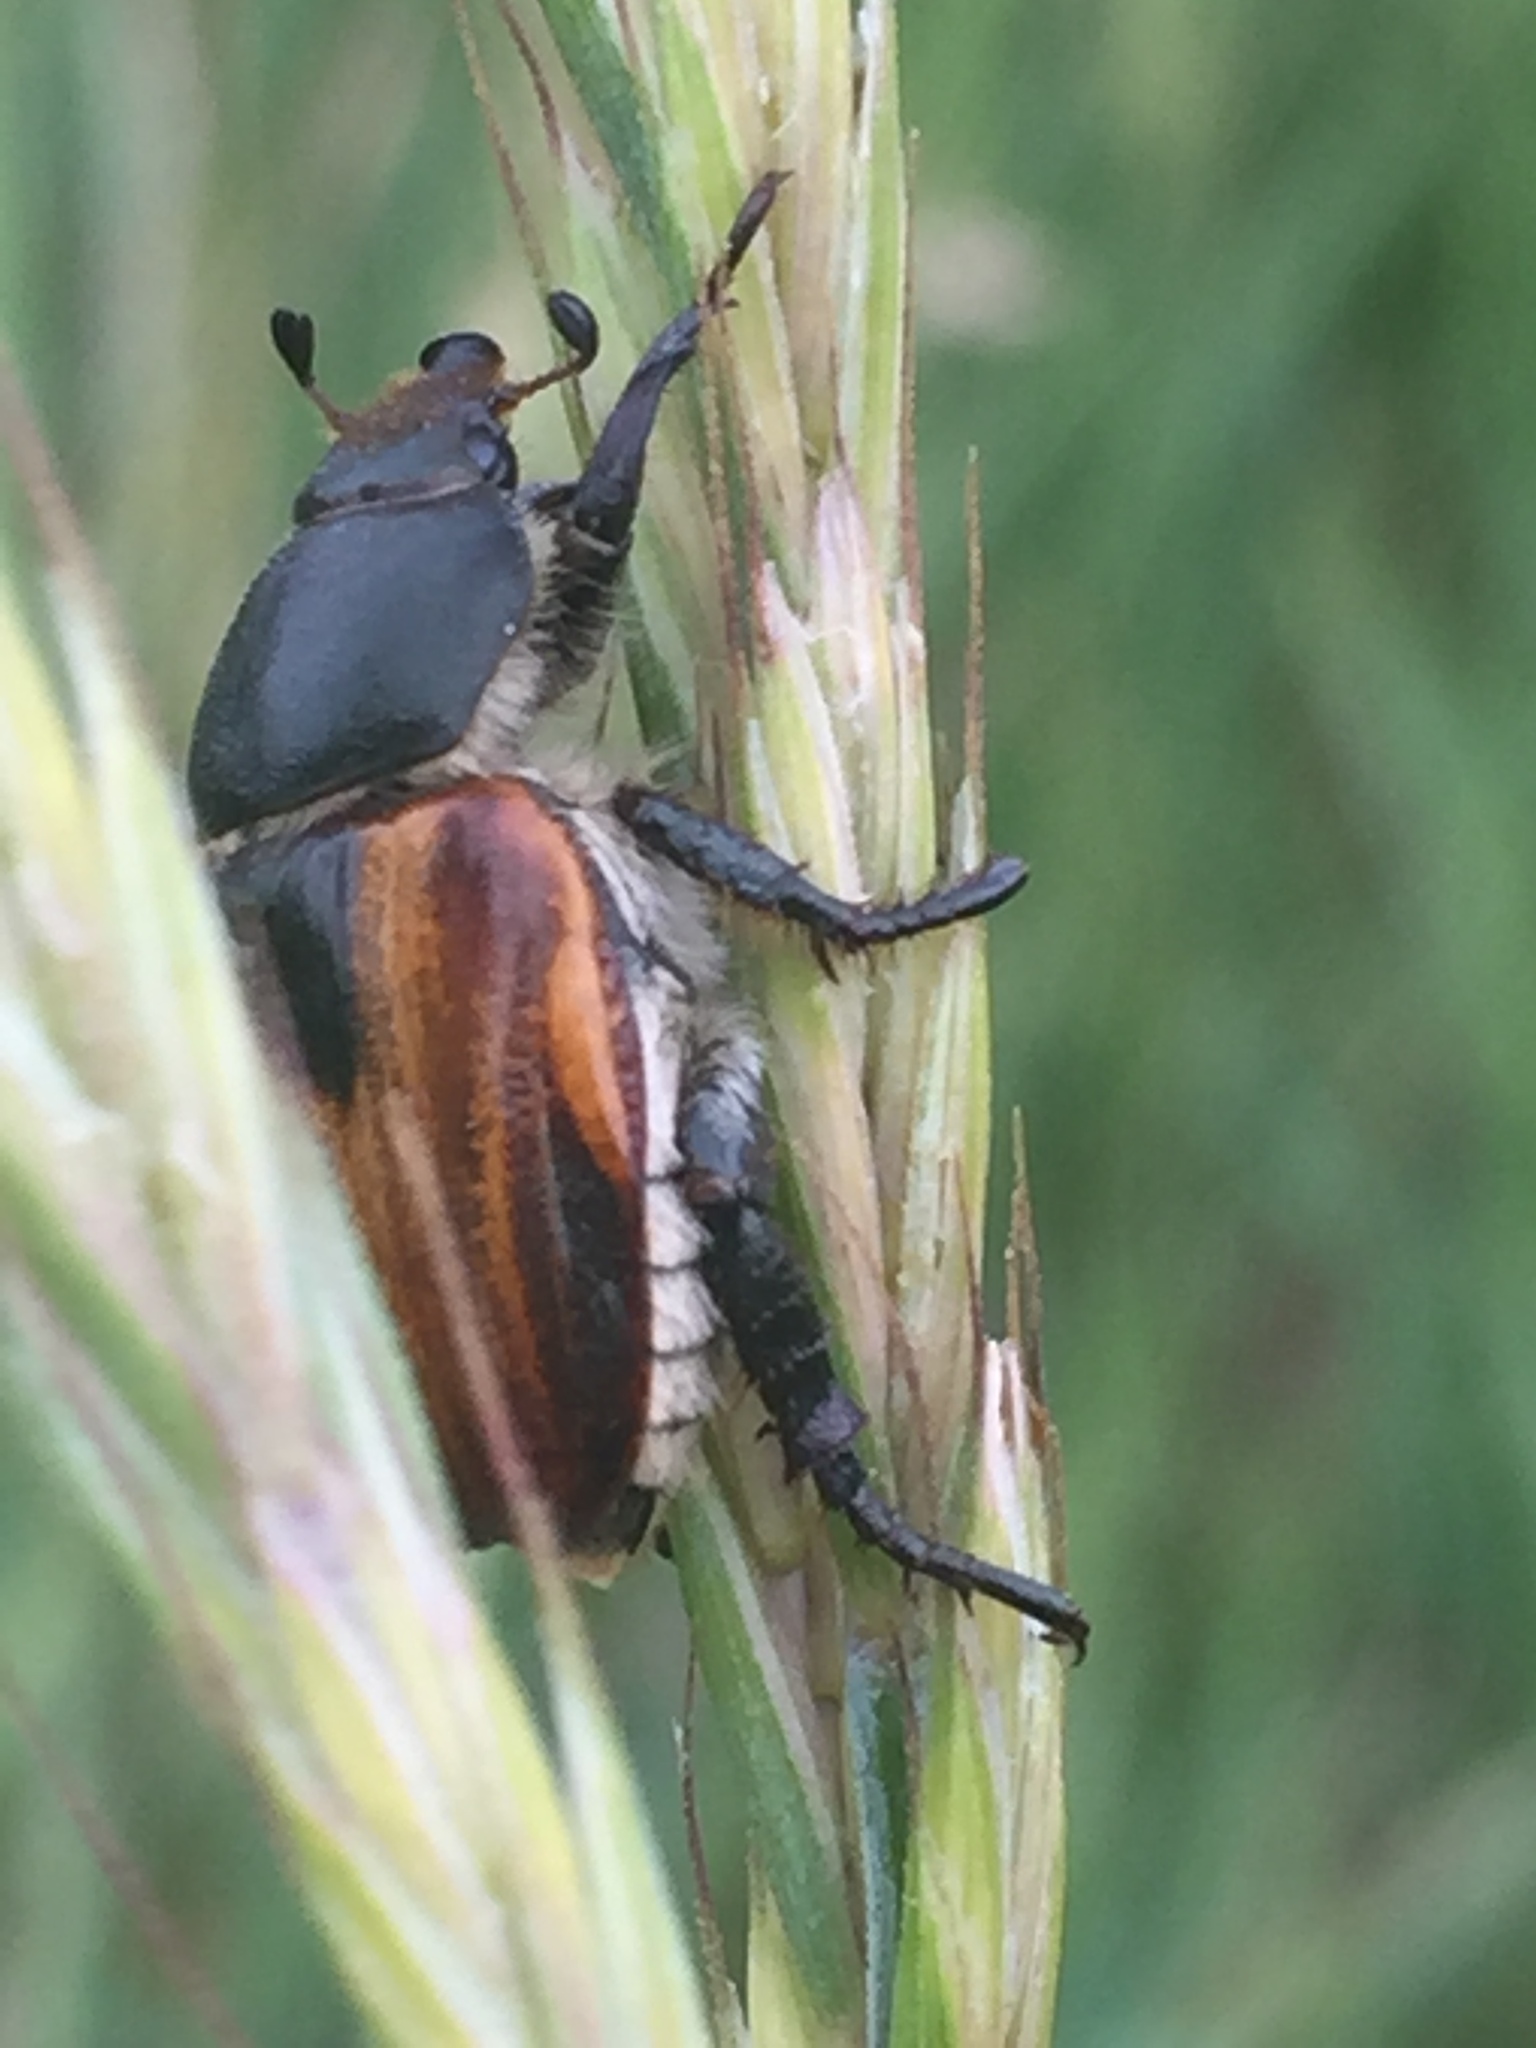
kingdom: Animalia
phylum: Arthropoda
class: Insecta
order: Coleoptera
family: Scarabaeidae
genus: Anisoplia
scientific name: Anisoplia austriaca
